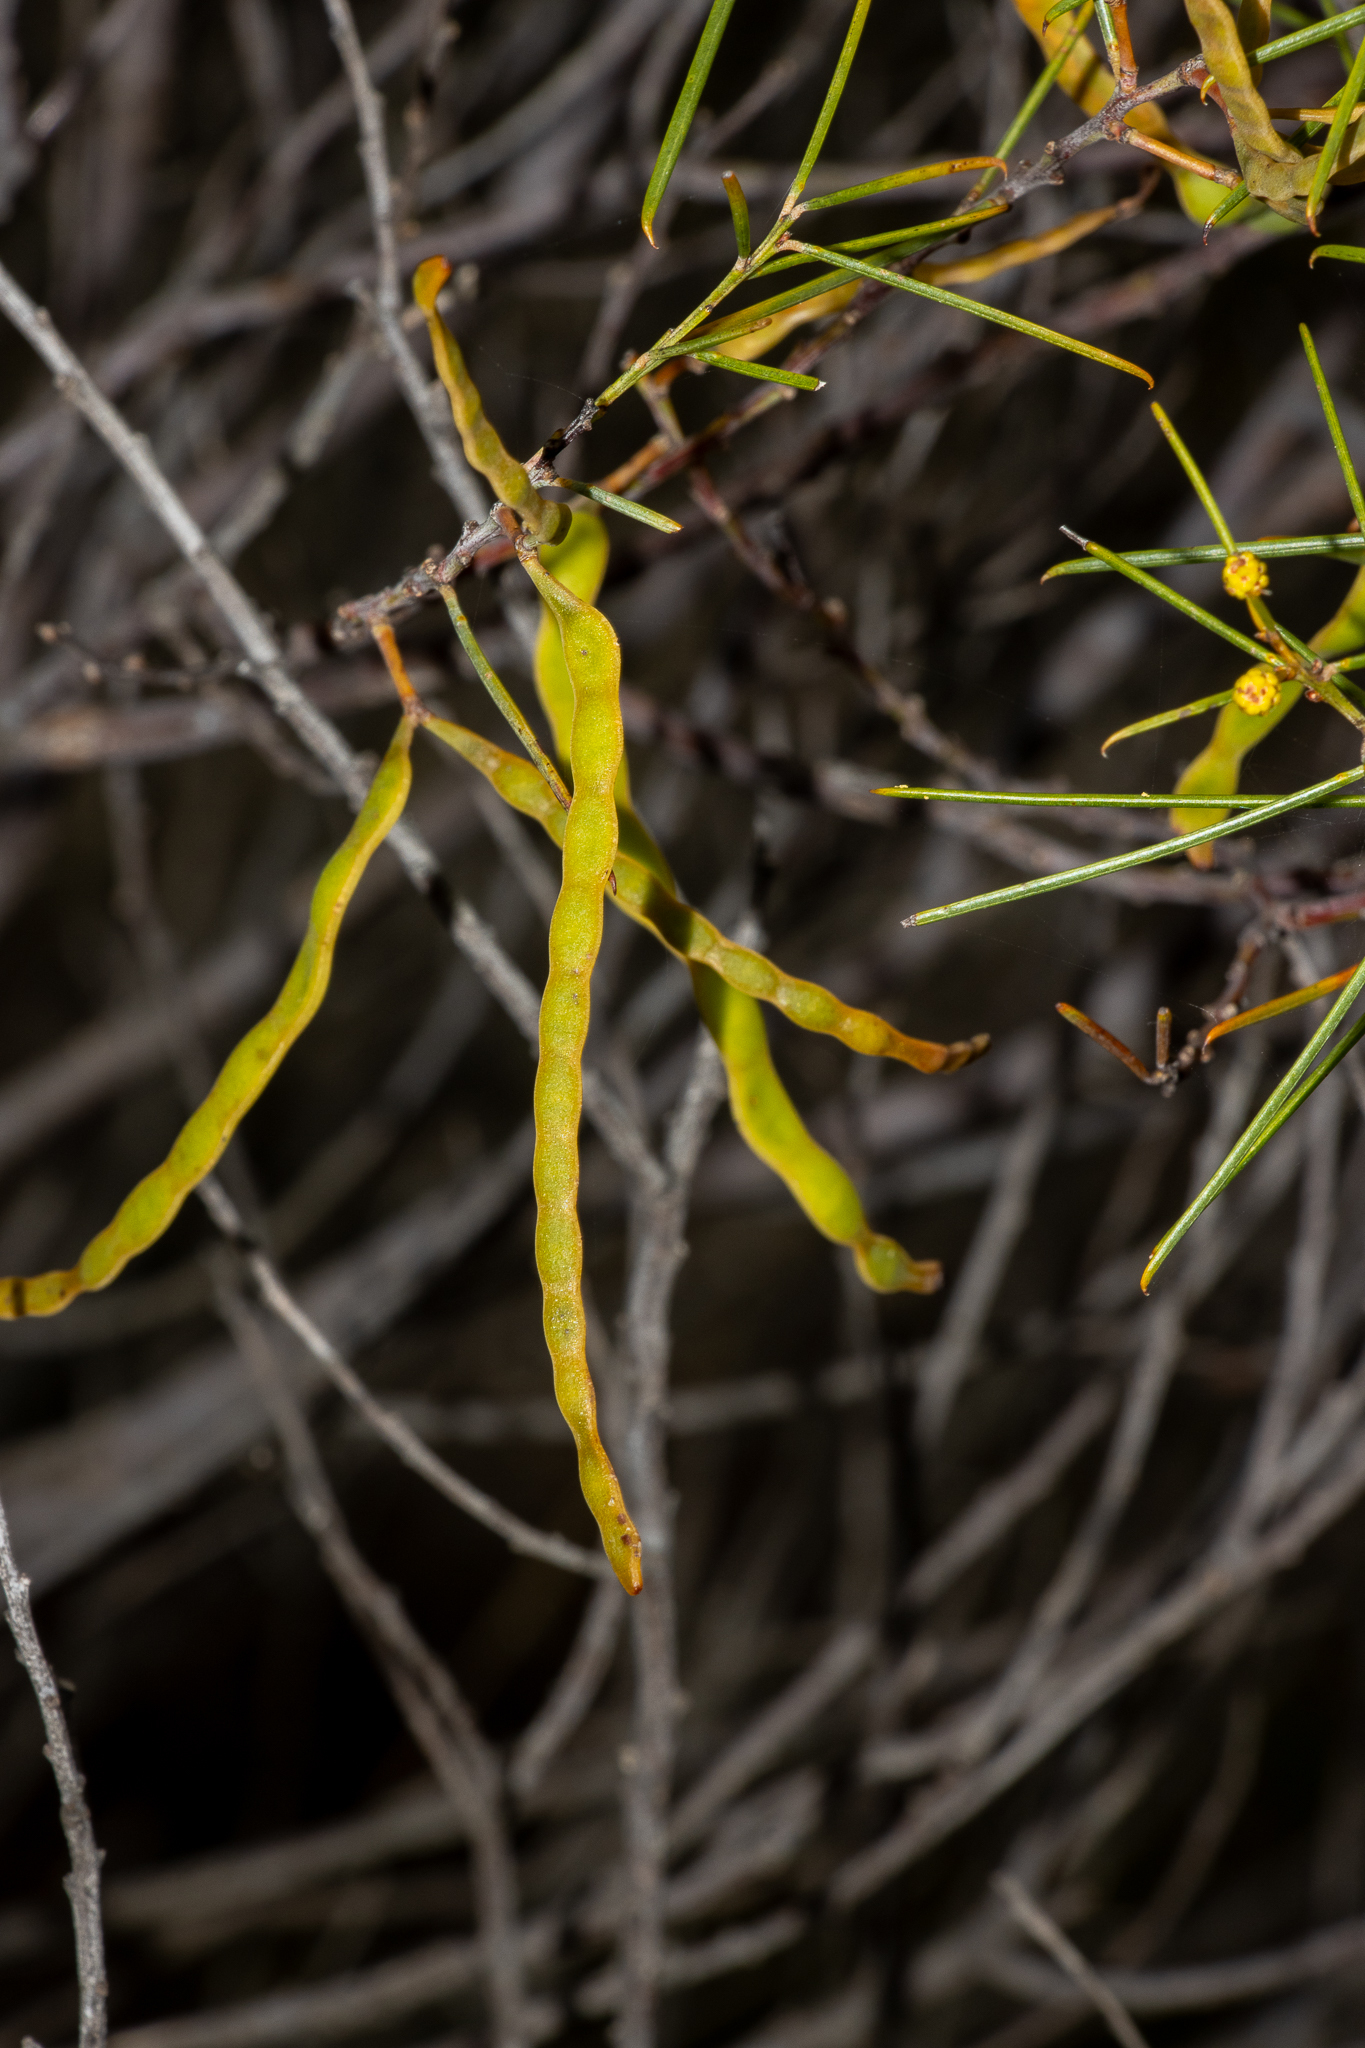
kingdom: Plantae
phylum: Tracheophyta
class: Magnoliopsida
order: Fabales
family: Fabaceae
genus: Acacia
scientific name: Acacia euthycarpa
